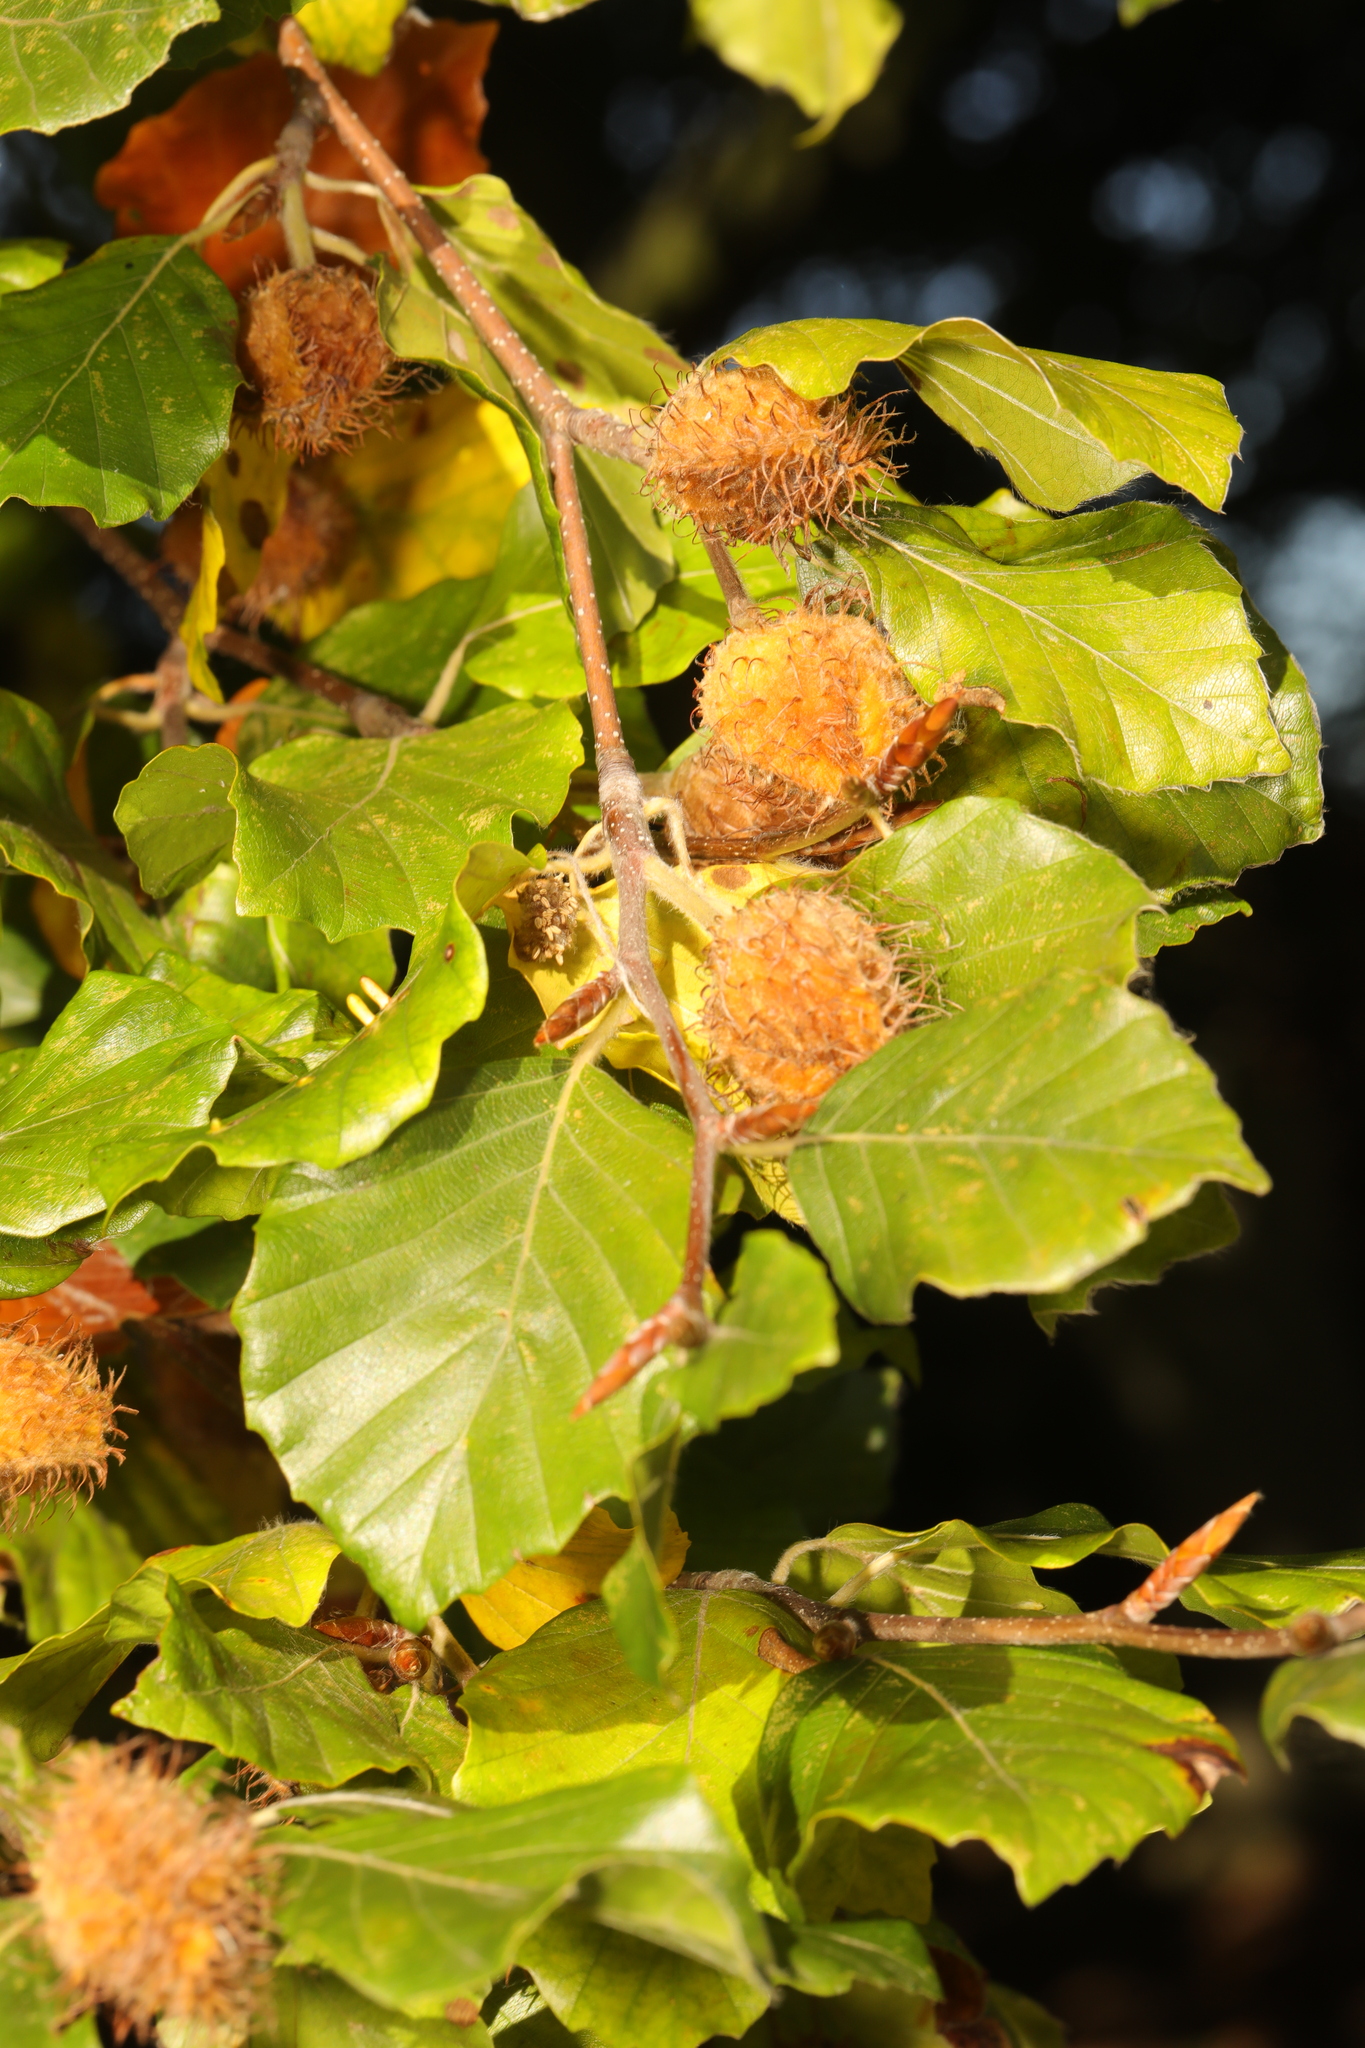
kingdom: Plantae
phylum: Tracheophyta
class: Magnoliopsida
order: Fagales
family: Fagaceae
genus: Fagus
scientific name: Fagus sylvatica
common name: Beech
